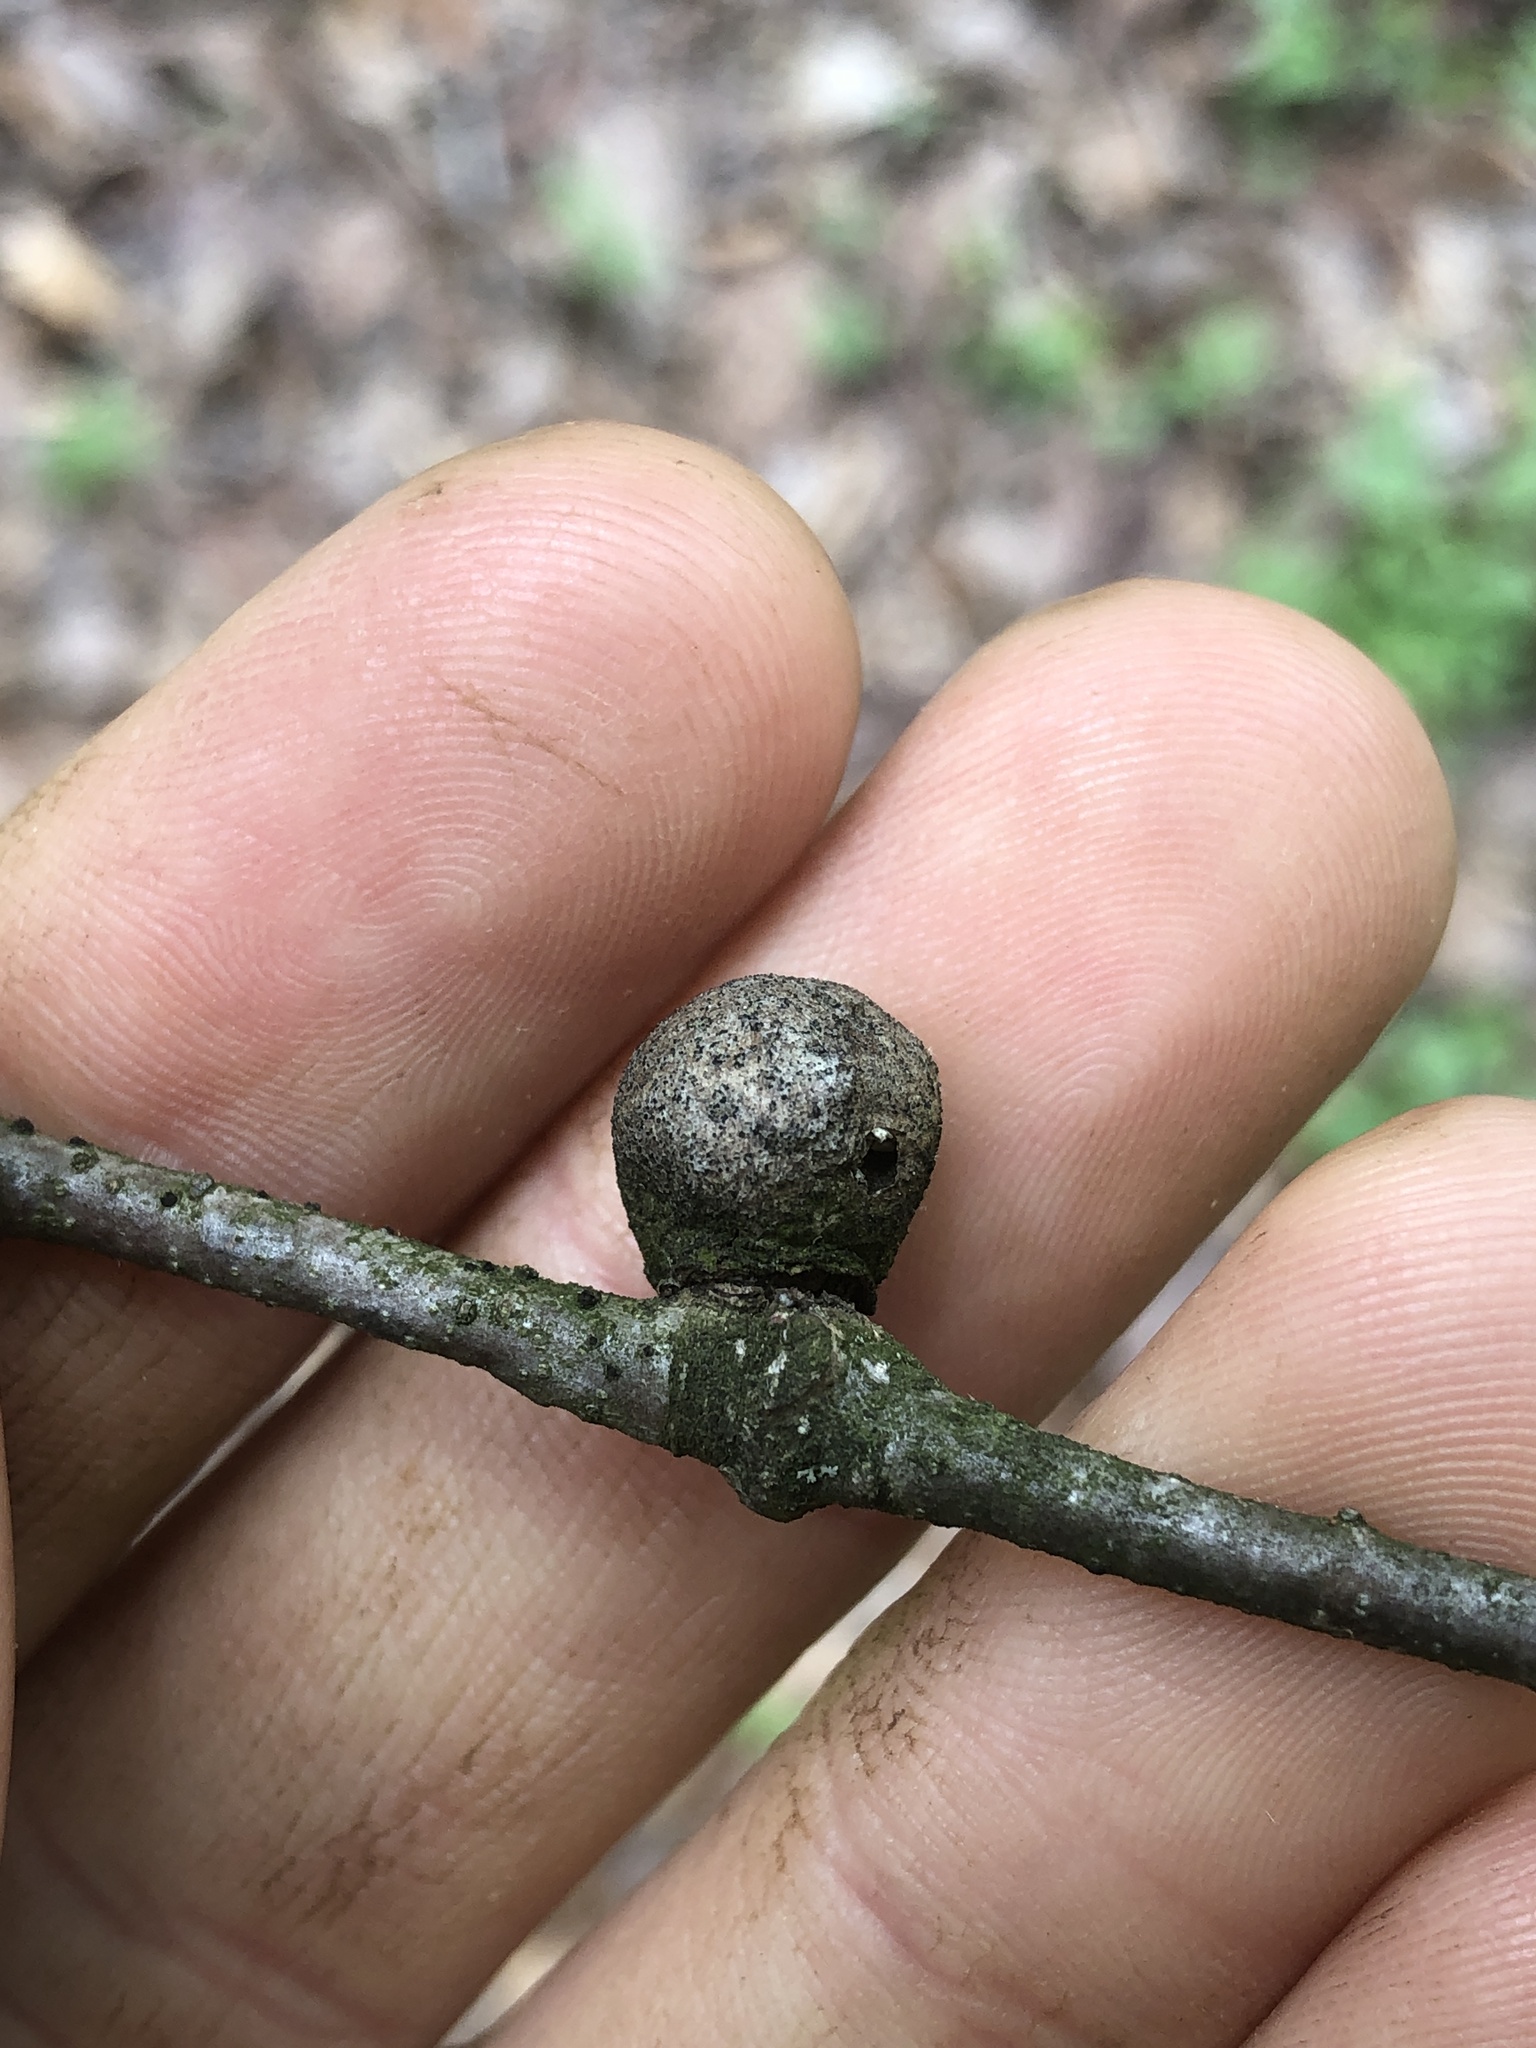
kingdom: Animalia
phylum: Arthropoda
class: Insecta
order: Hymenoptera
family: Cynipidae
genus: Disholcaspis
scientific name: Disholcaspis quercusglobulus
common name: Round bullet gall wasp
